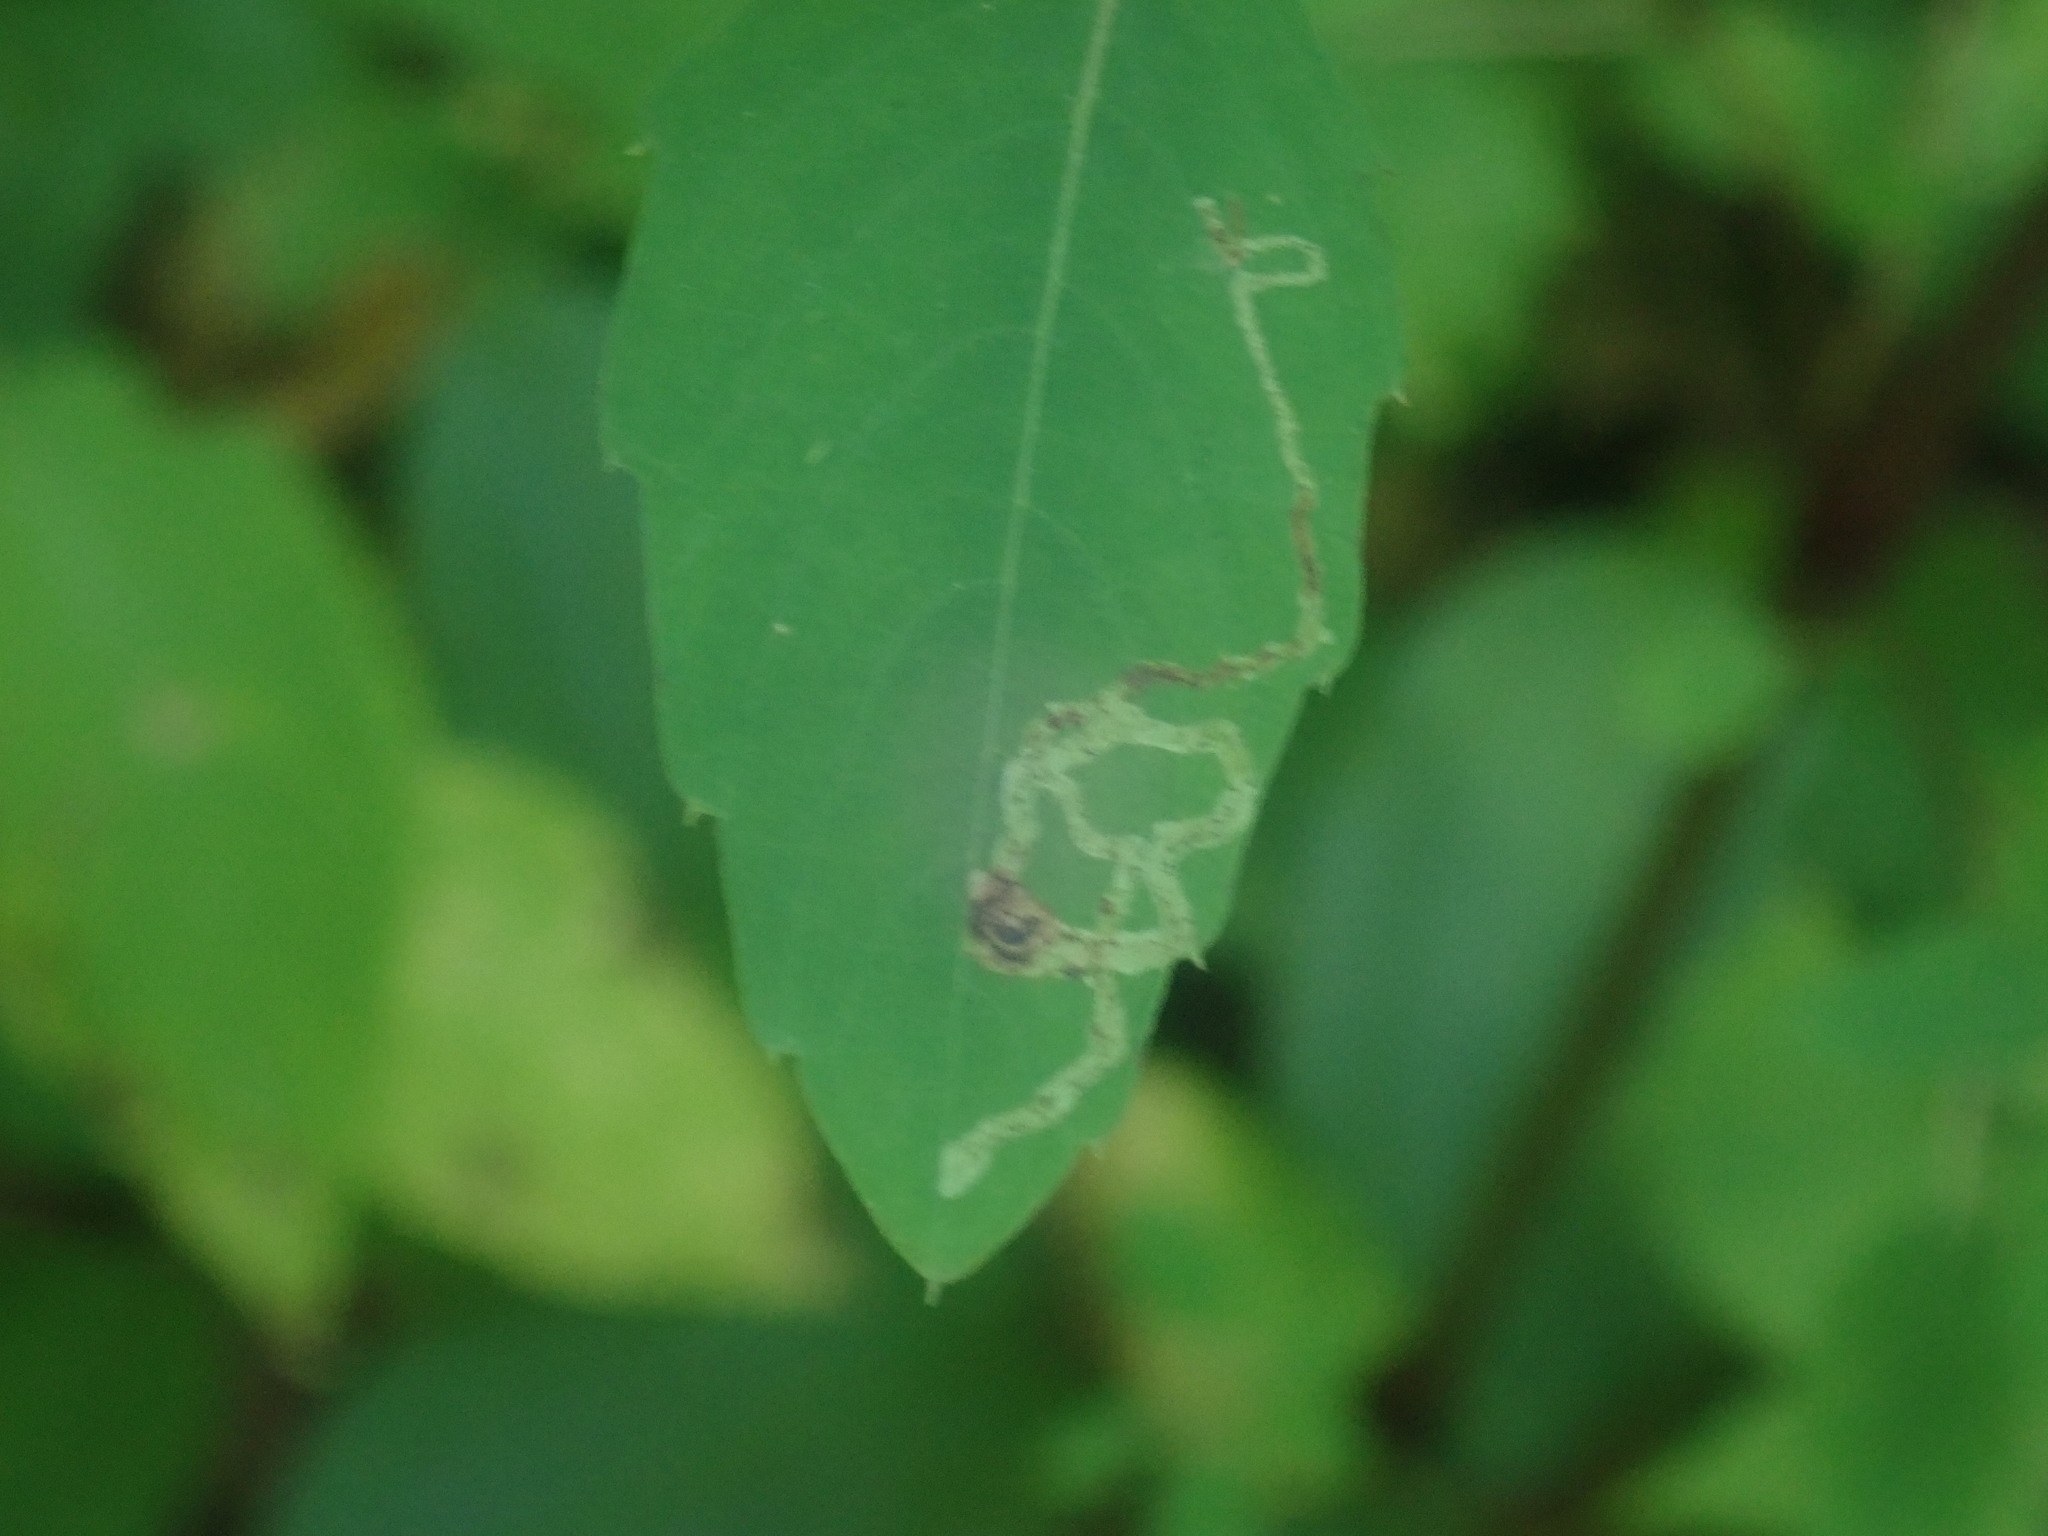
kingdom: Animalia
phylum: Arthropoda
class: Insecta
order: Diptera
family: Agromyzidae
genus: Phytoliriomyza
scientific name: Phytoliriomyza melampyga
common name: Jewelweed leaf-miner fly
